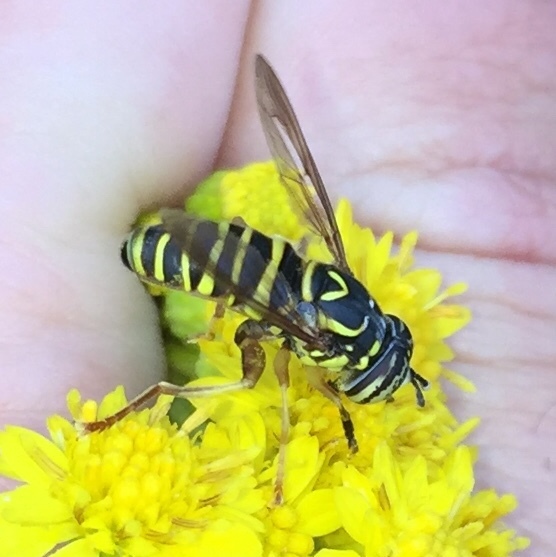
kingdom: Animalia
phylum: Arthropoda
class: Insecta
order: Diptera
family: Syrphidae
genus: Spilomyia
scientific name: Spilomyia longicornis
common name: Eastern hornet fly
